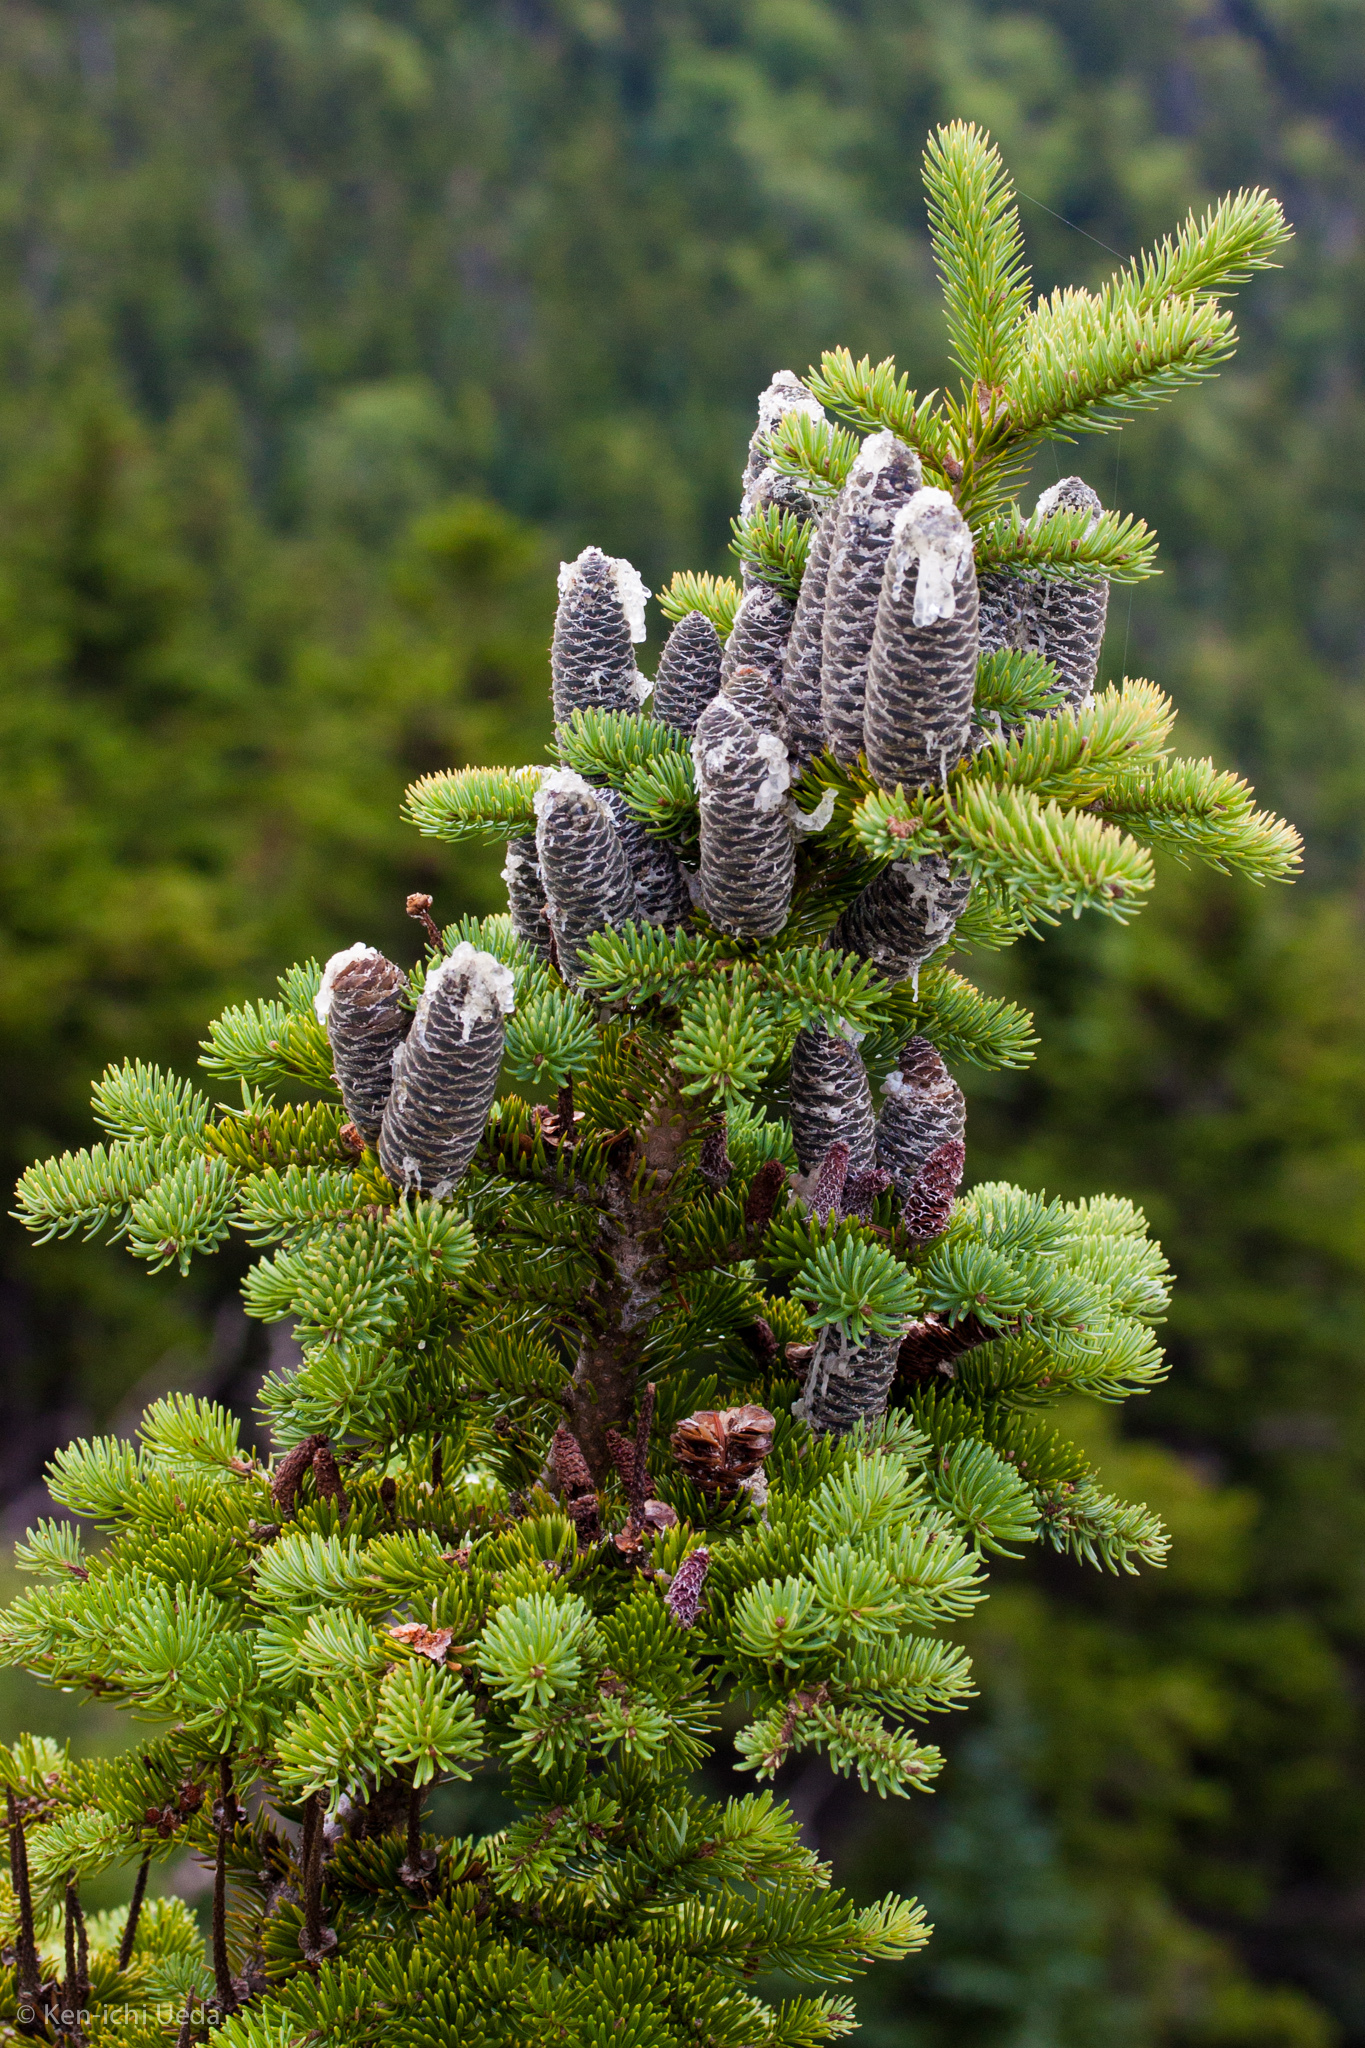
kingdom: Plantae
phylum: Tracheophyta
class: Pinopsida
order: Pinales
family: Pinaceae
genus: Abies
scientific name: Abies balsamea
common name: Balsam fir
